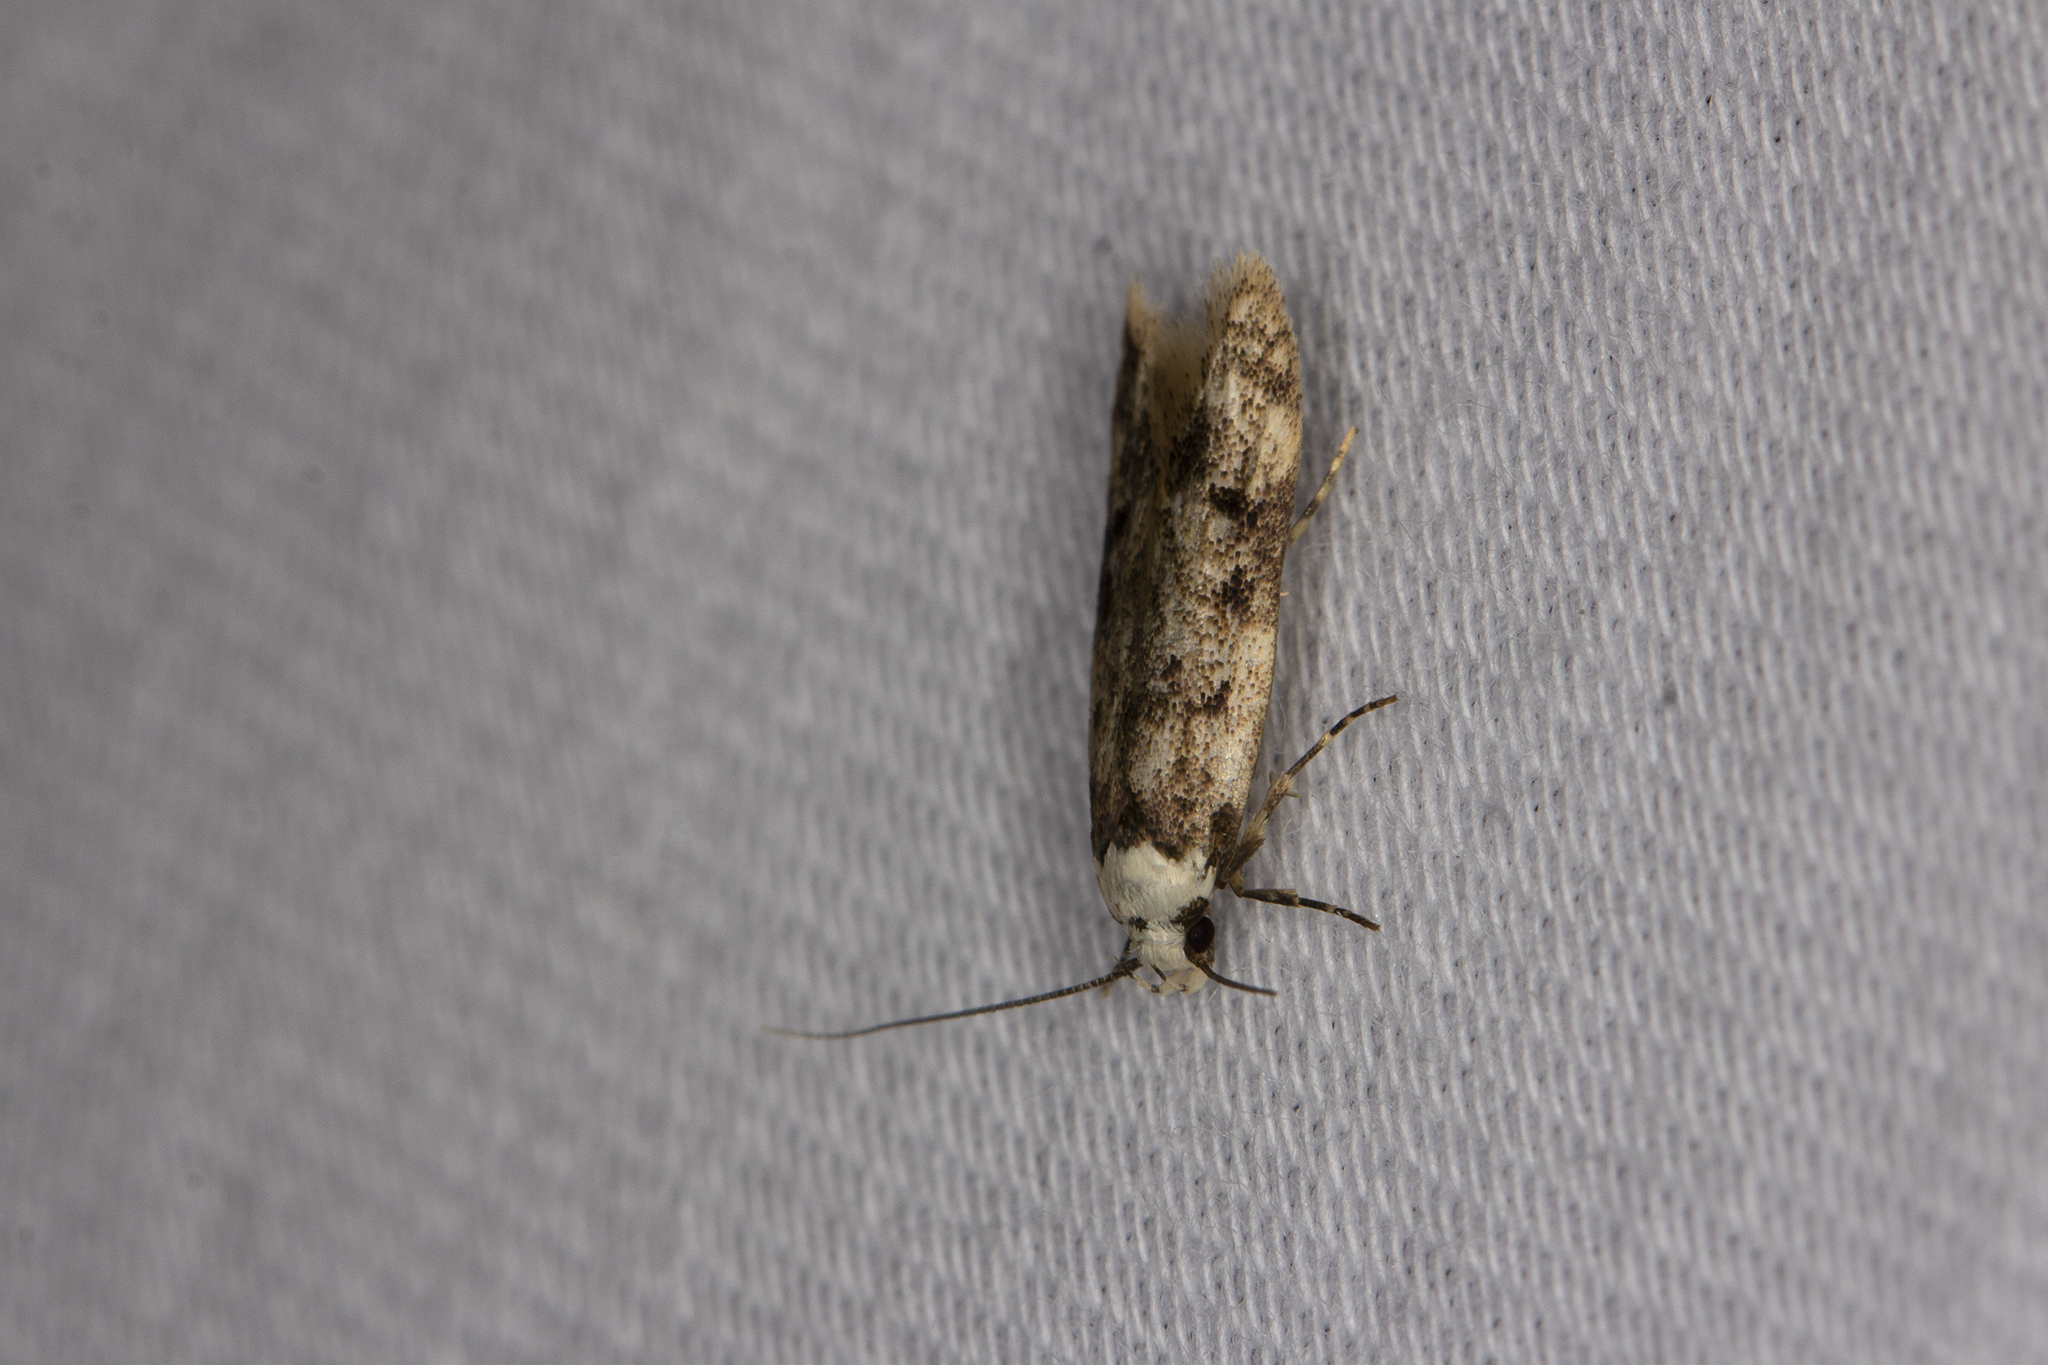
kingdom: Animalia
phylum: Arthropoda
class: Insecta
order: Lepidoptera
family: Oecophoridae
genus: Endrosis
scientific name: Endrosis sarcitrella
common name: White-shouldered house moth
